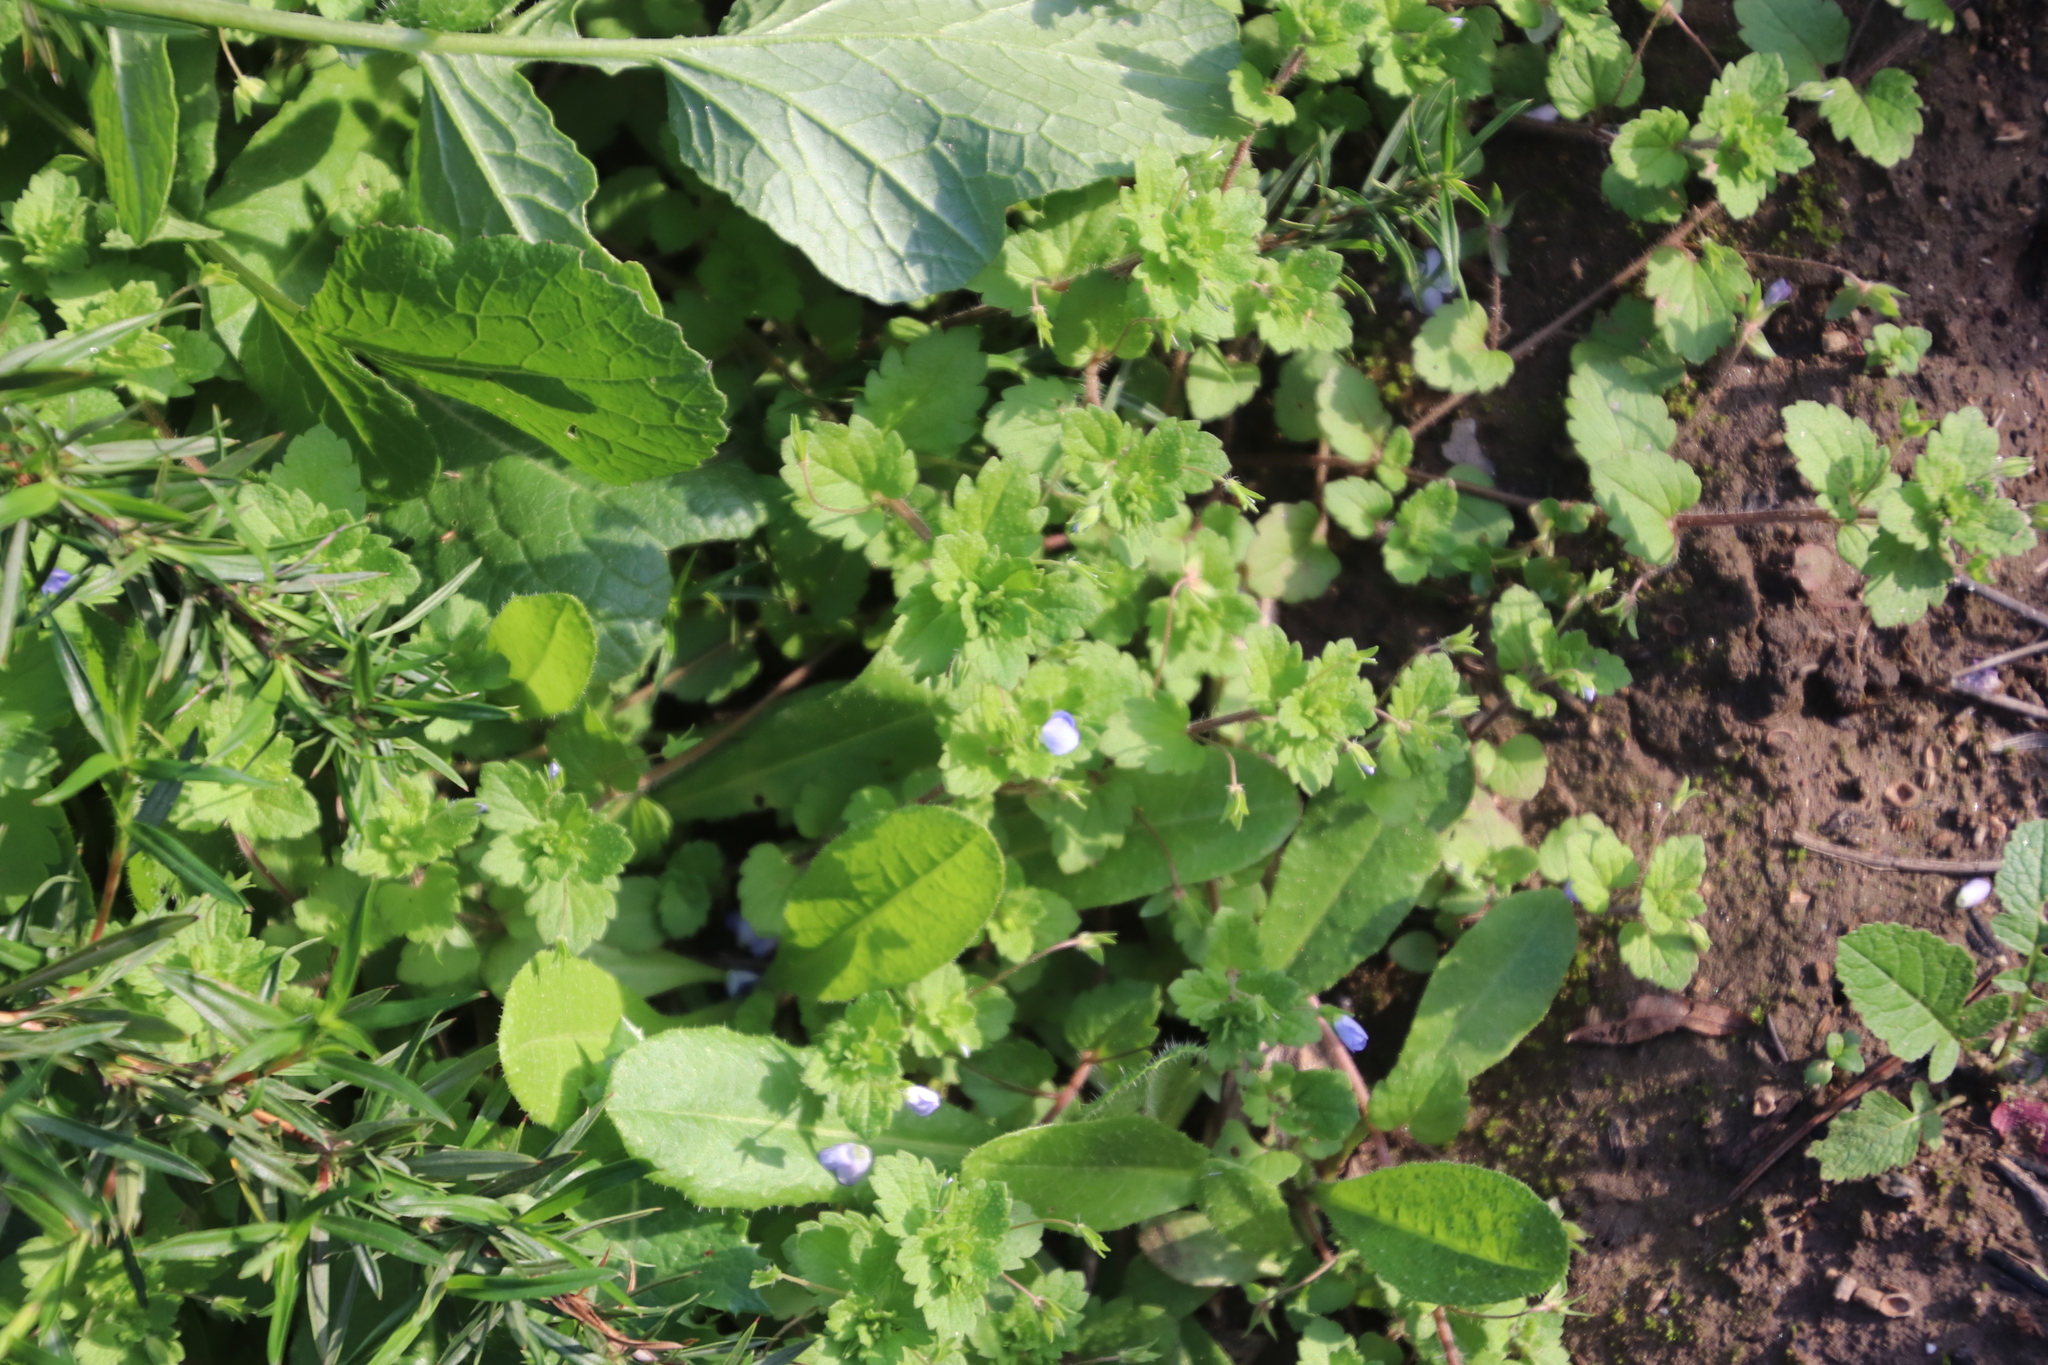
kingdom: Plantae
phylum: Tracheophyta
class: Magnoliopsida
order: Lamiales
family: Plantaginaceae
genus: Veronica
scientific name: Veronica persica
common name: Common field-speedwell
